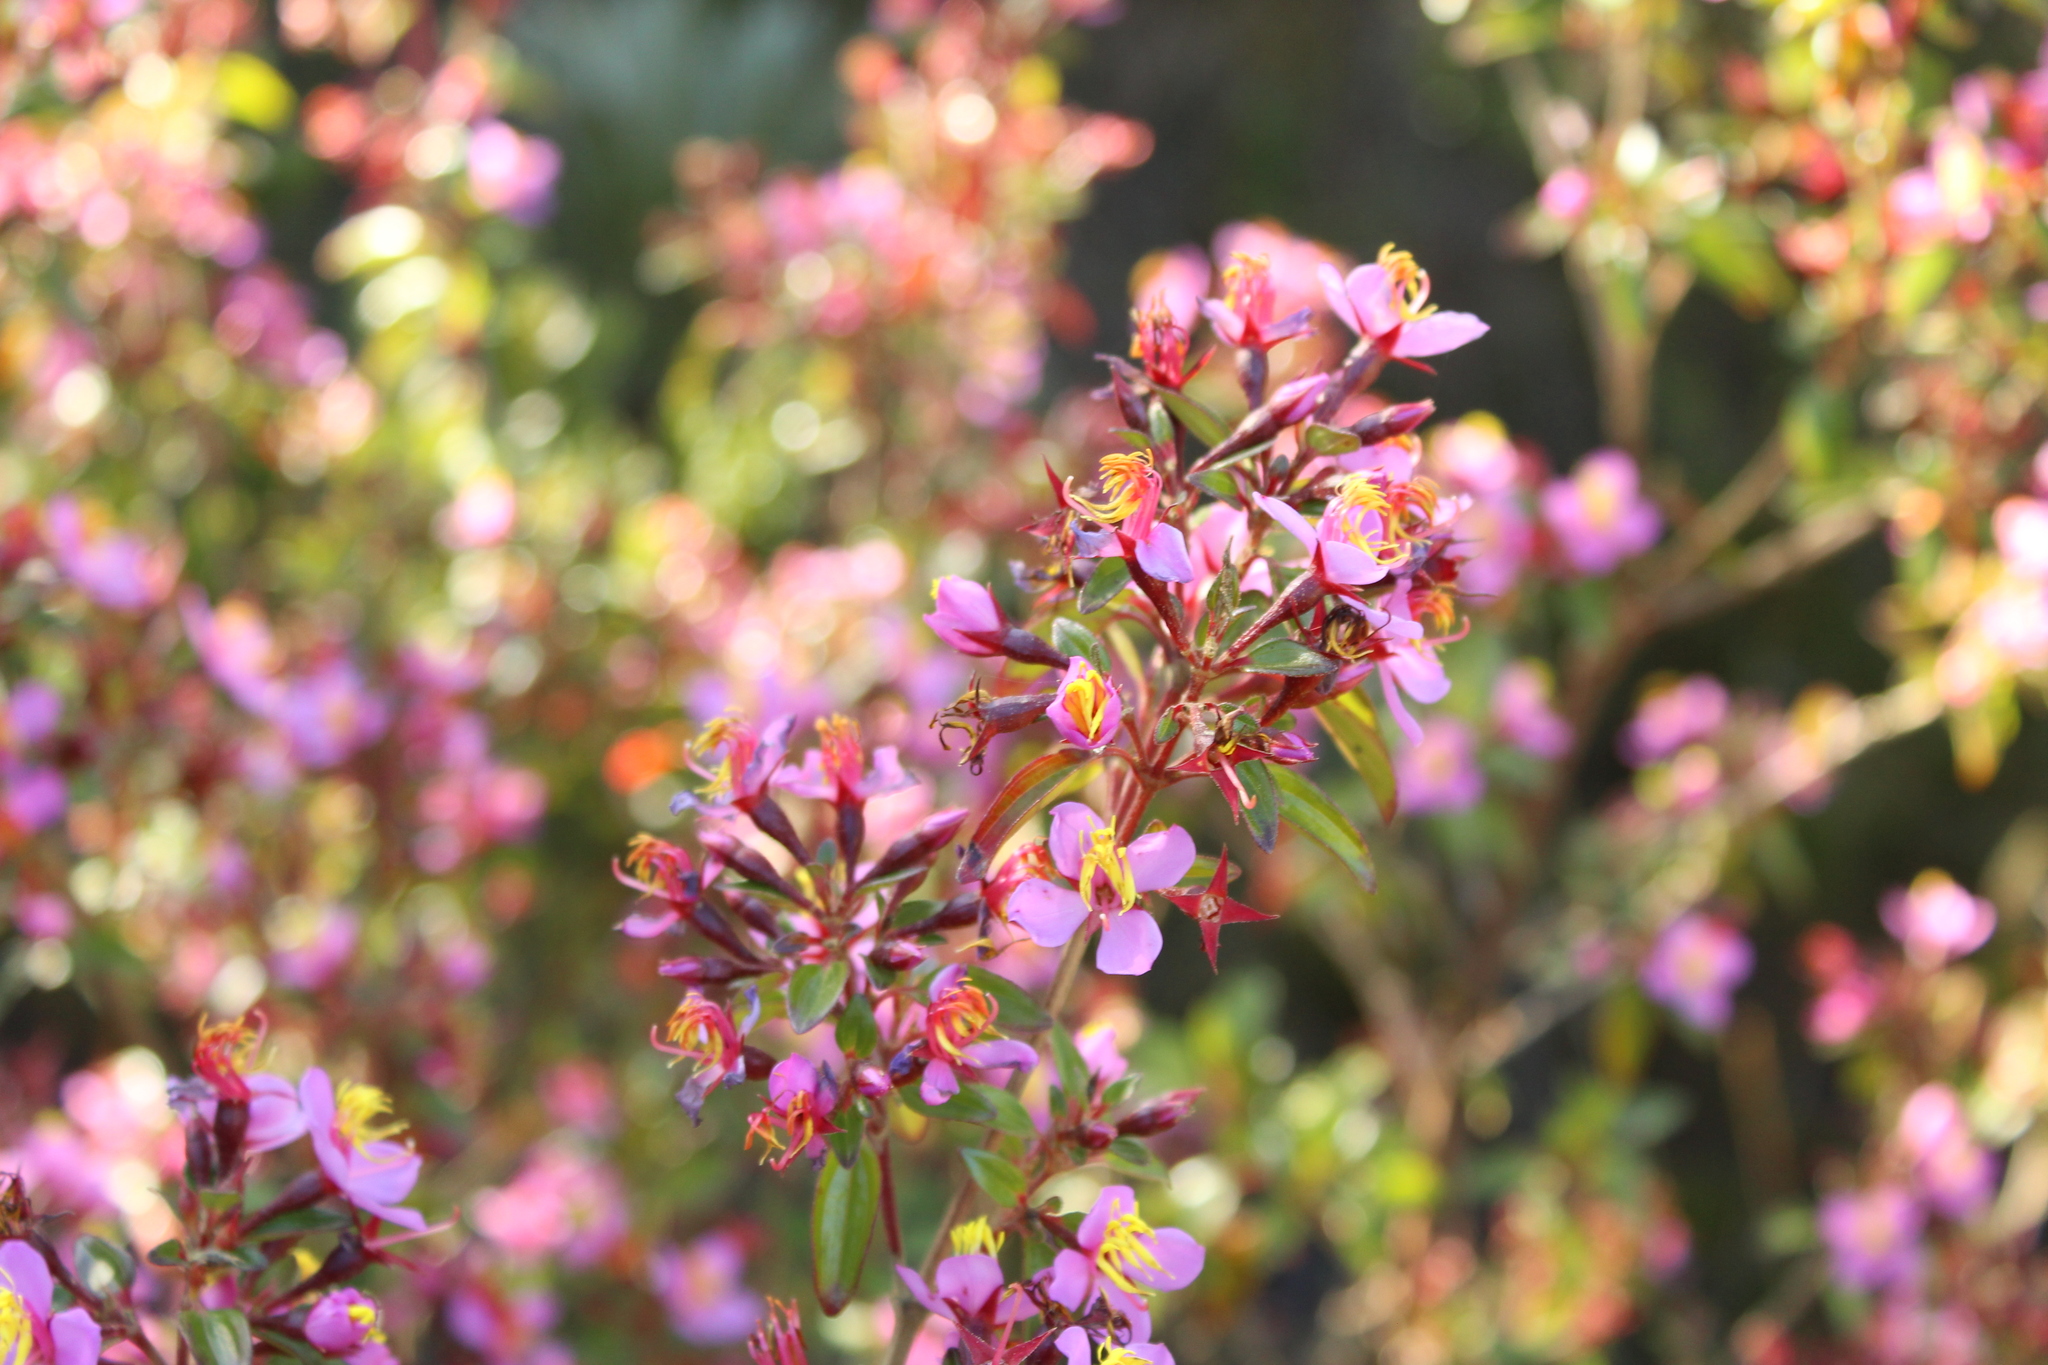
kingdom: Plantae
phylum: Tracheophyta
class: Magnoliopsida
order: Myrtales
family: Melastomataceae
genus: Monochaetum
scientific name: Monochaetum myrtoideum
